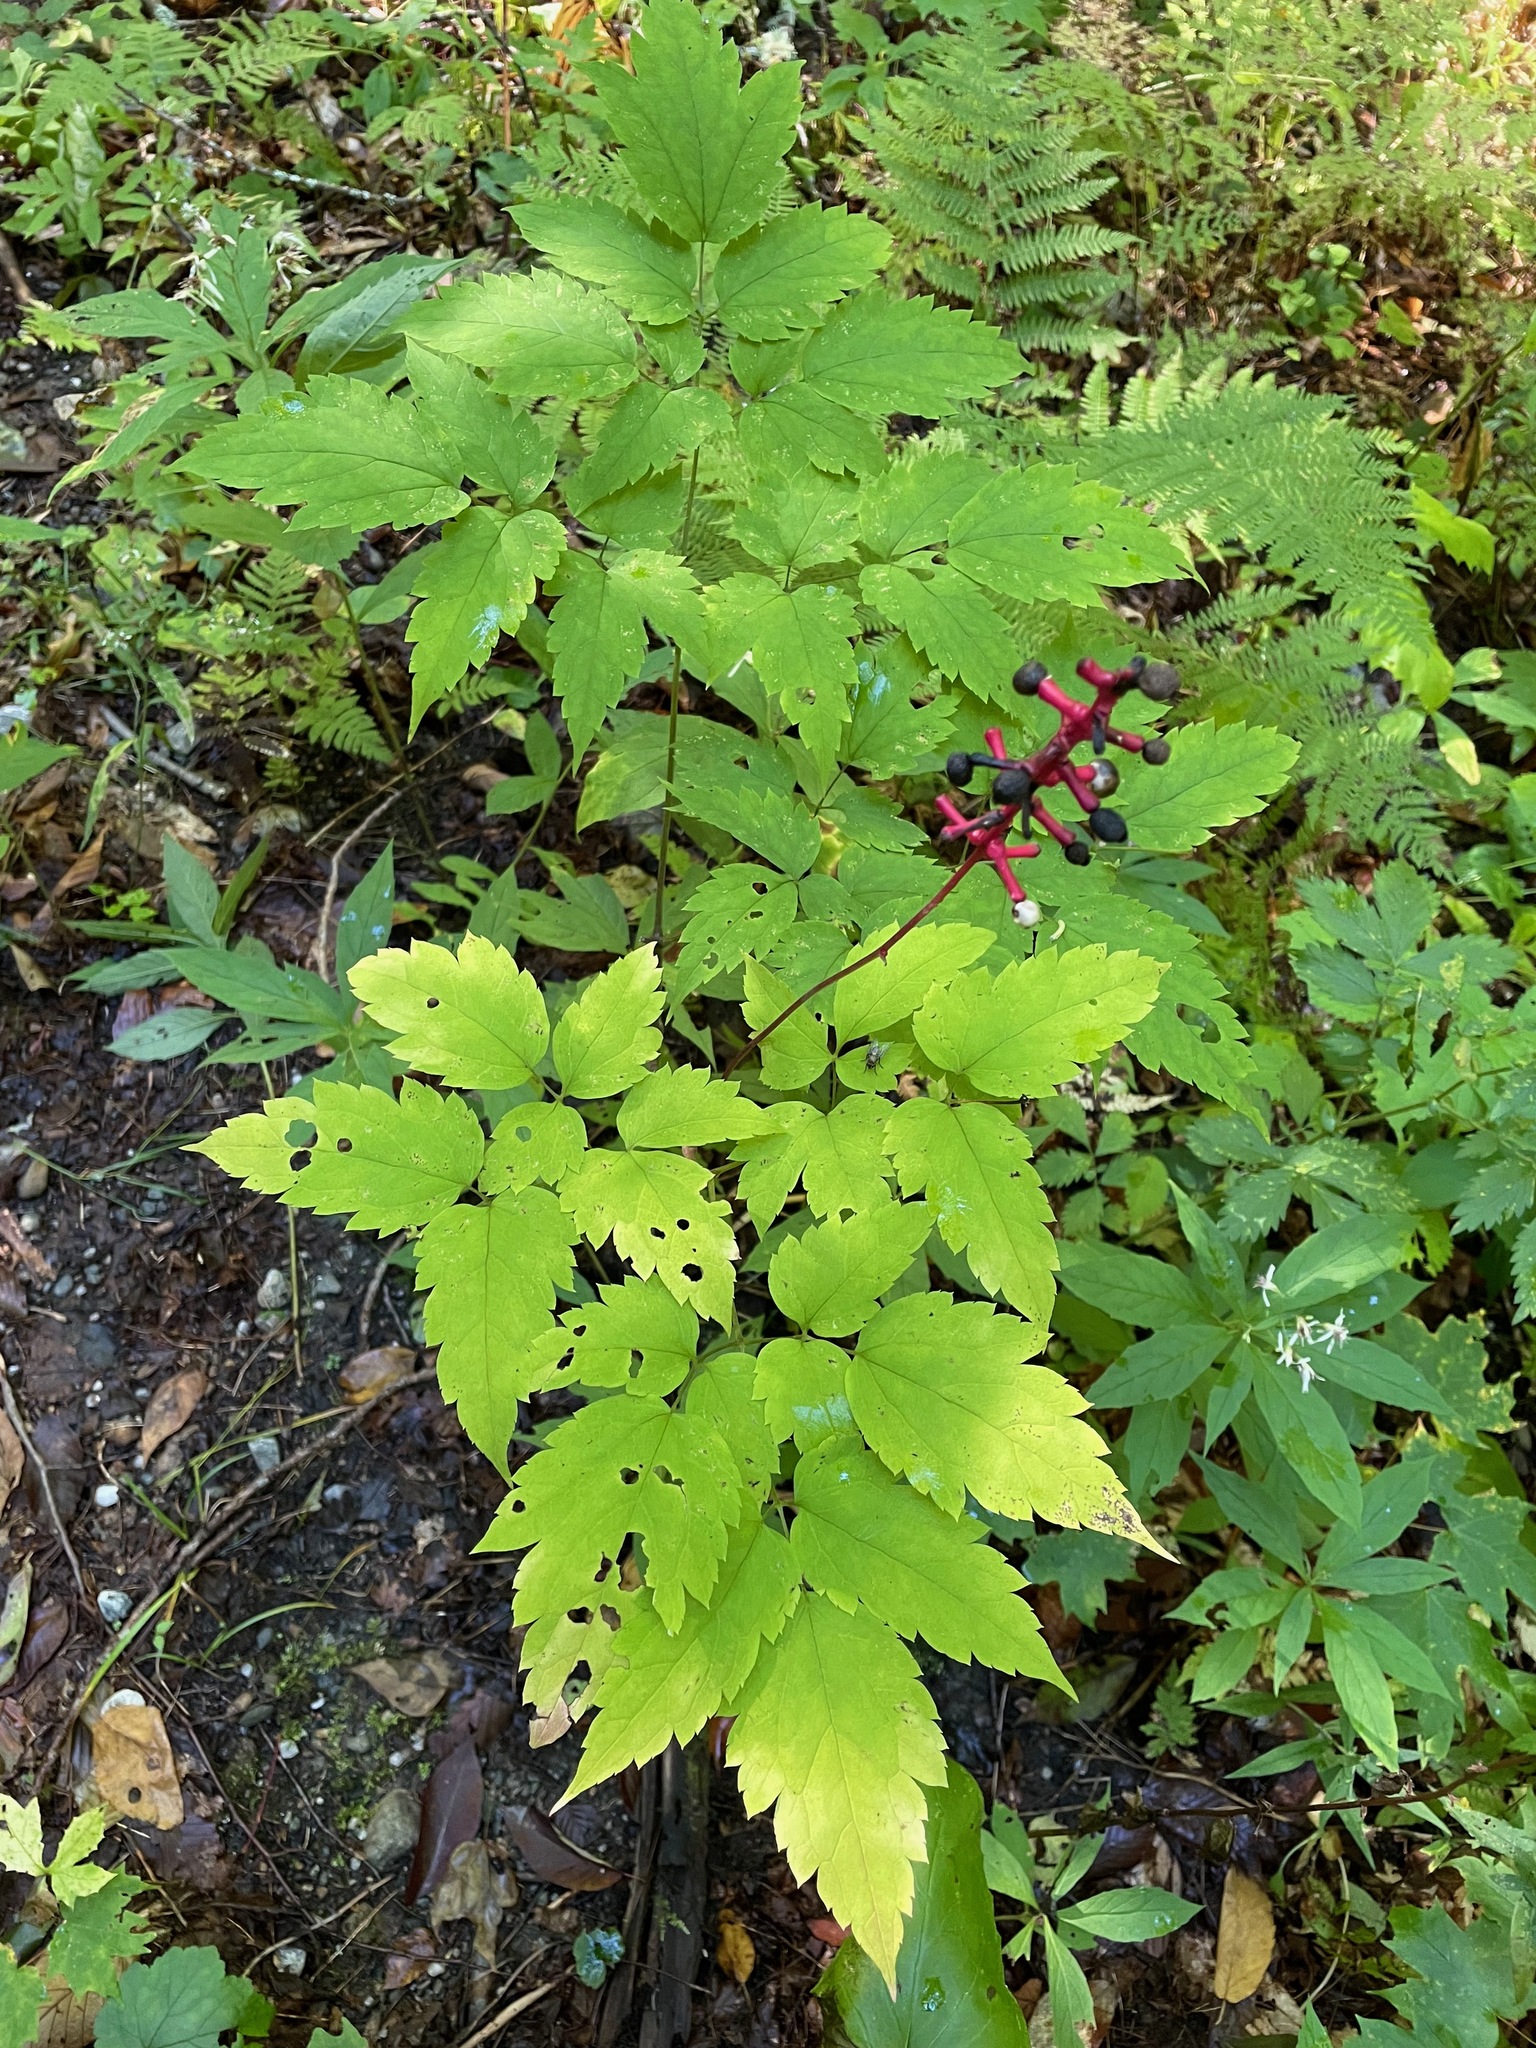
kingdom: Plantae
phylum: Tracheophyta
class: Magnoliopsida
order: Ranunculales
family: Ranunculaceae
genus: Actaea
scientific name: Actaea pachypoda
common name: Doll's-eyes
